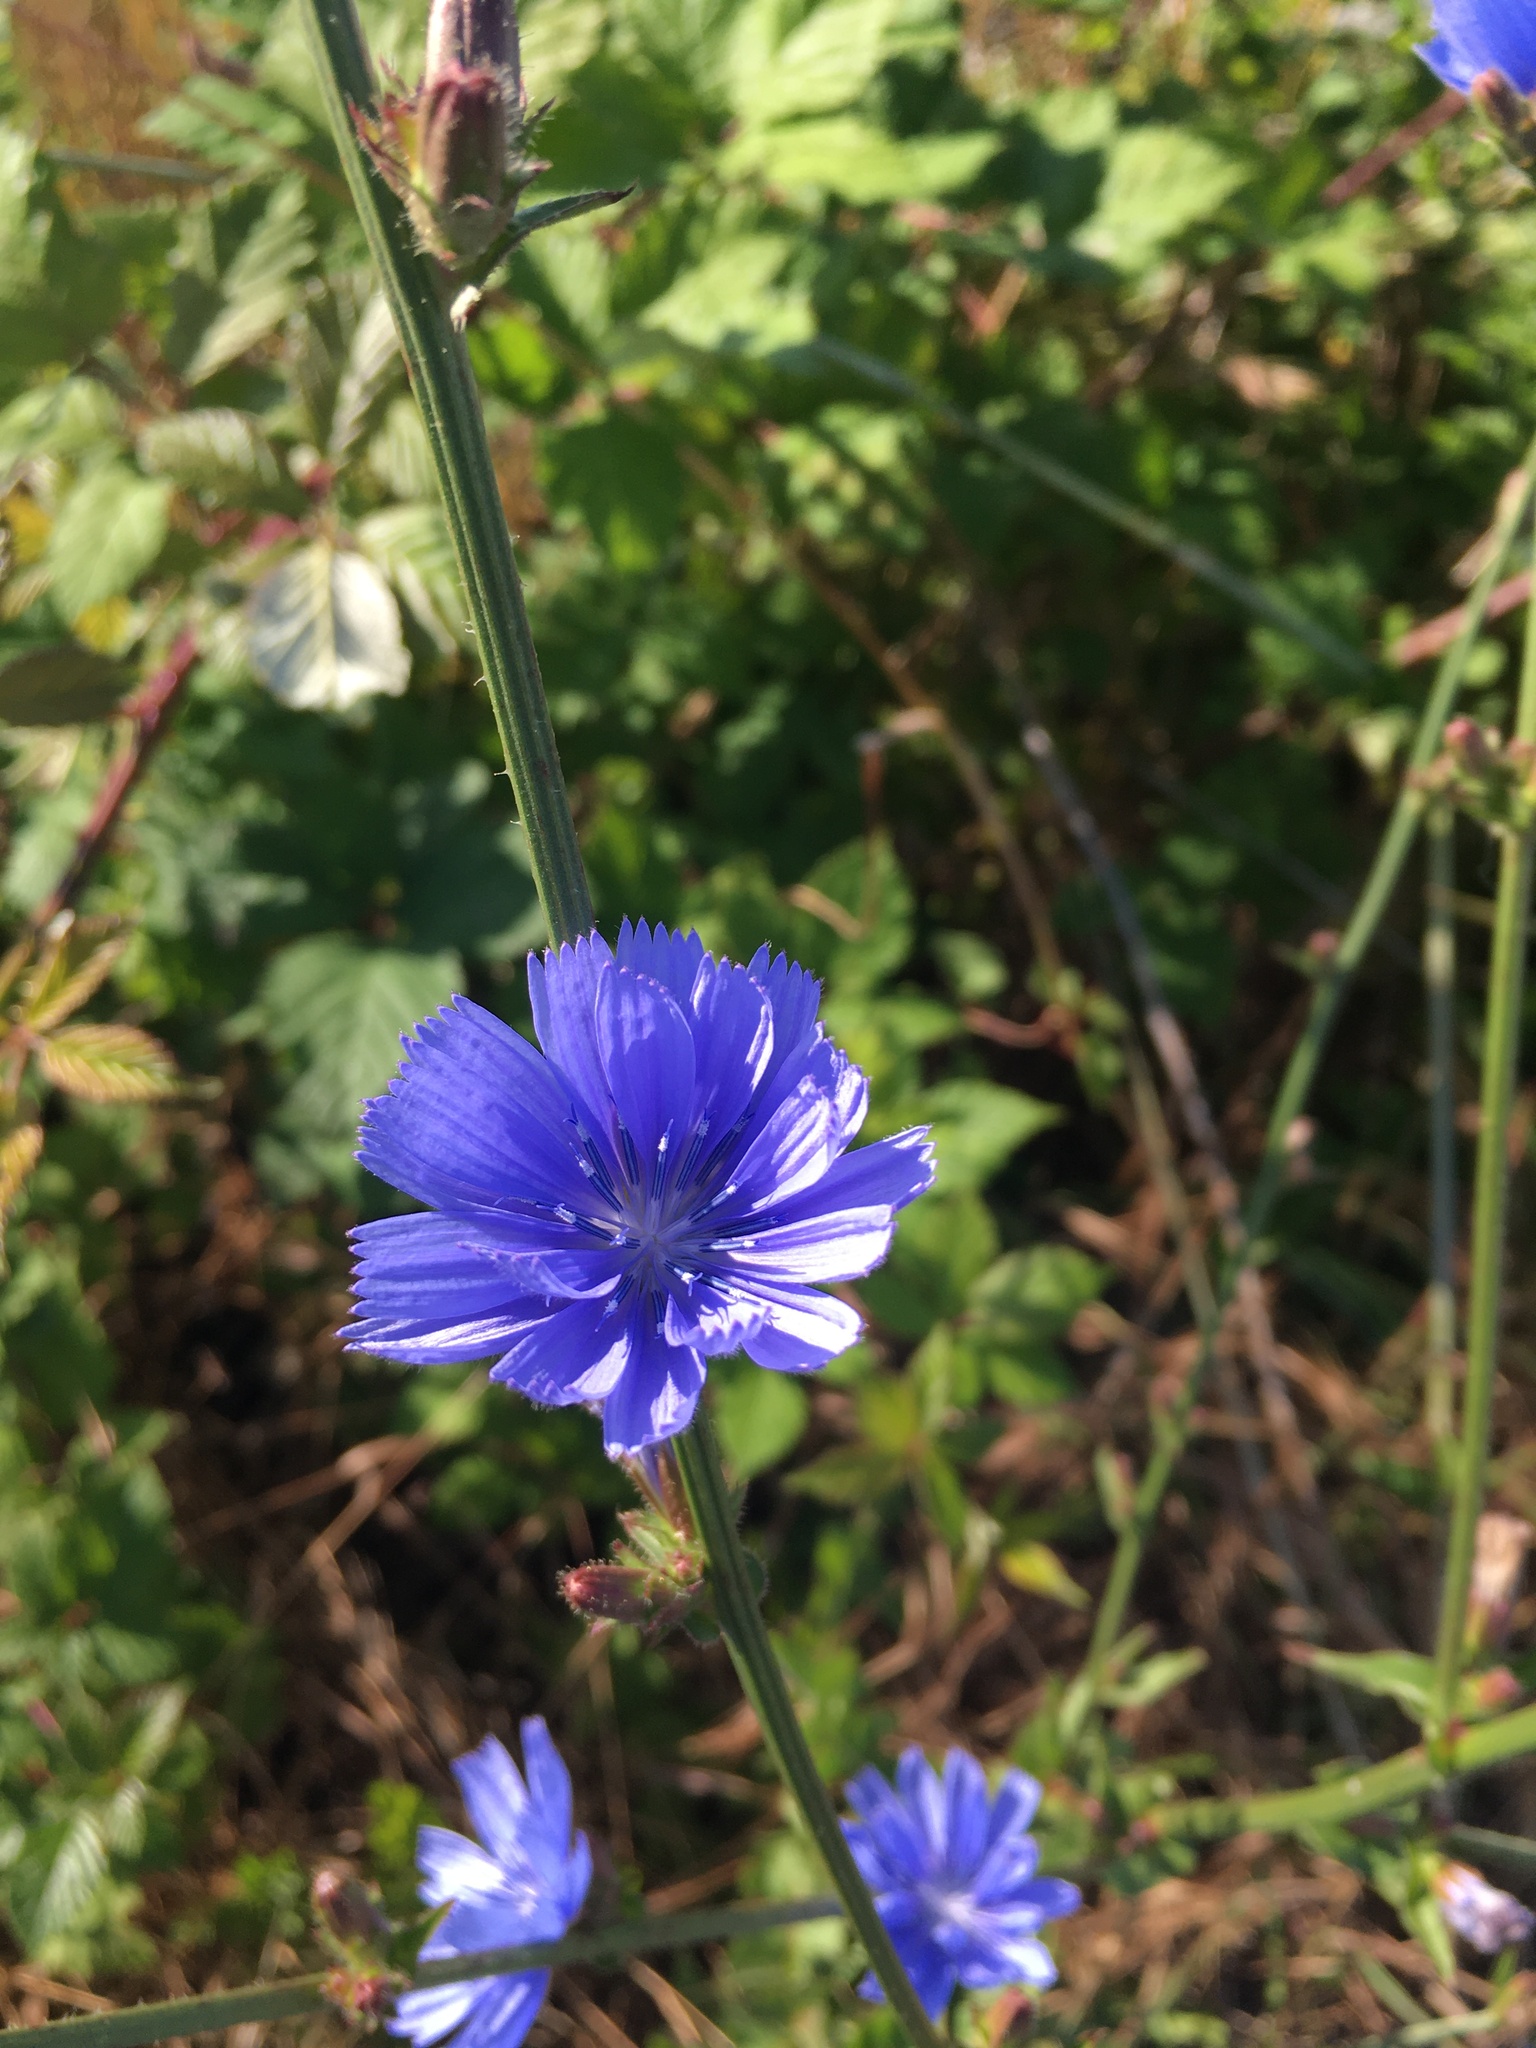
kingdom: Plantae
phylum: Tracheophyta
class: Magnoliopsida
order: Asterales
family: Asteraceae
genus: Cichorium
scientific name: Cichorium intybus
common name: Chicory
